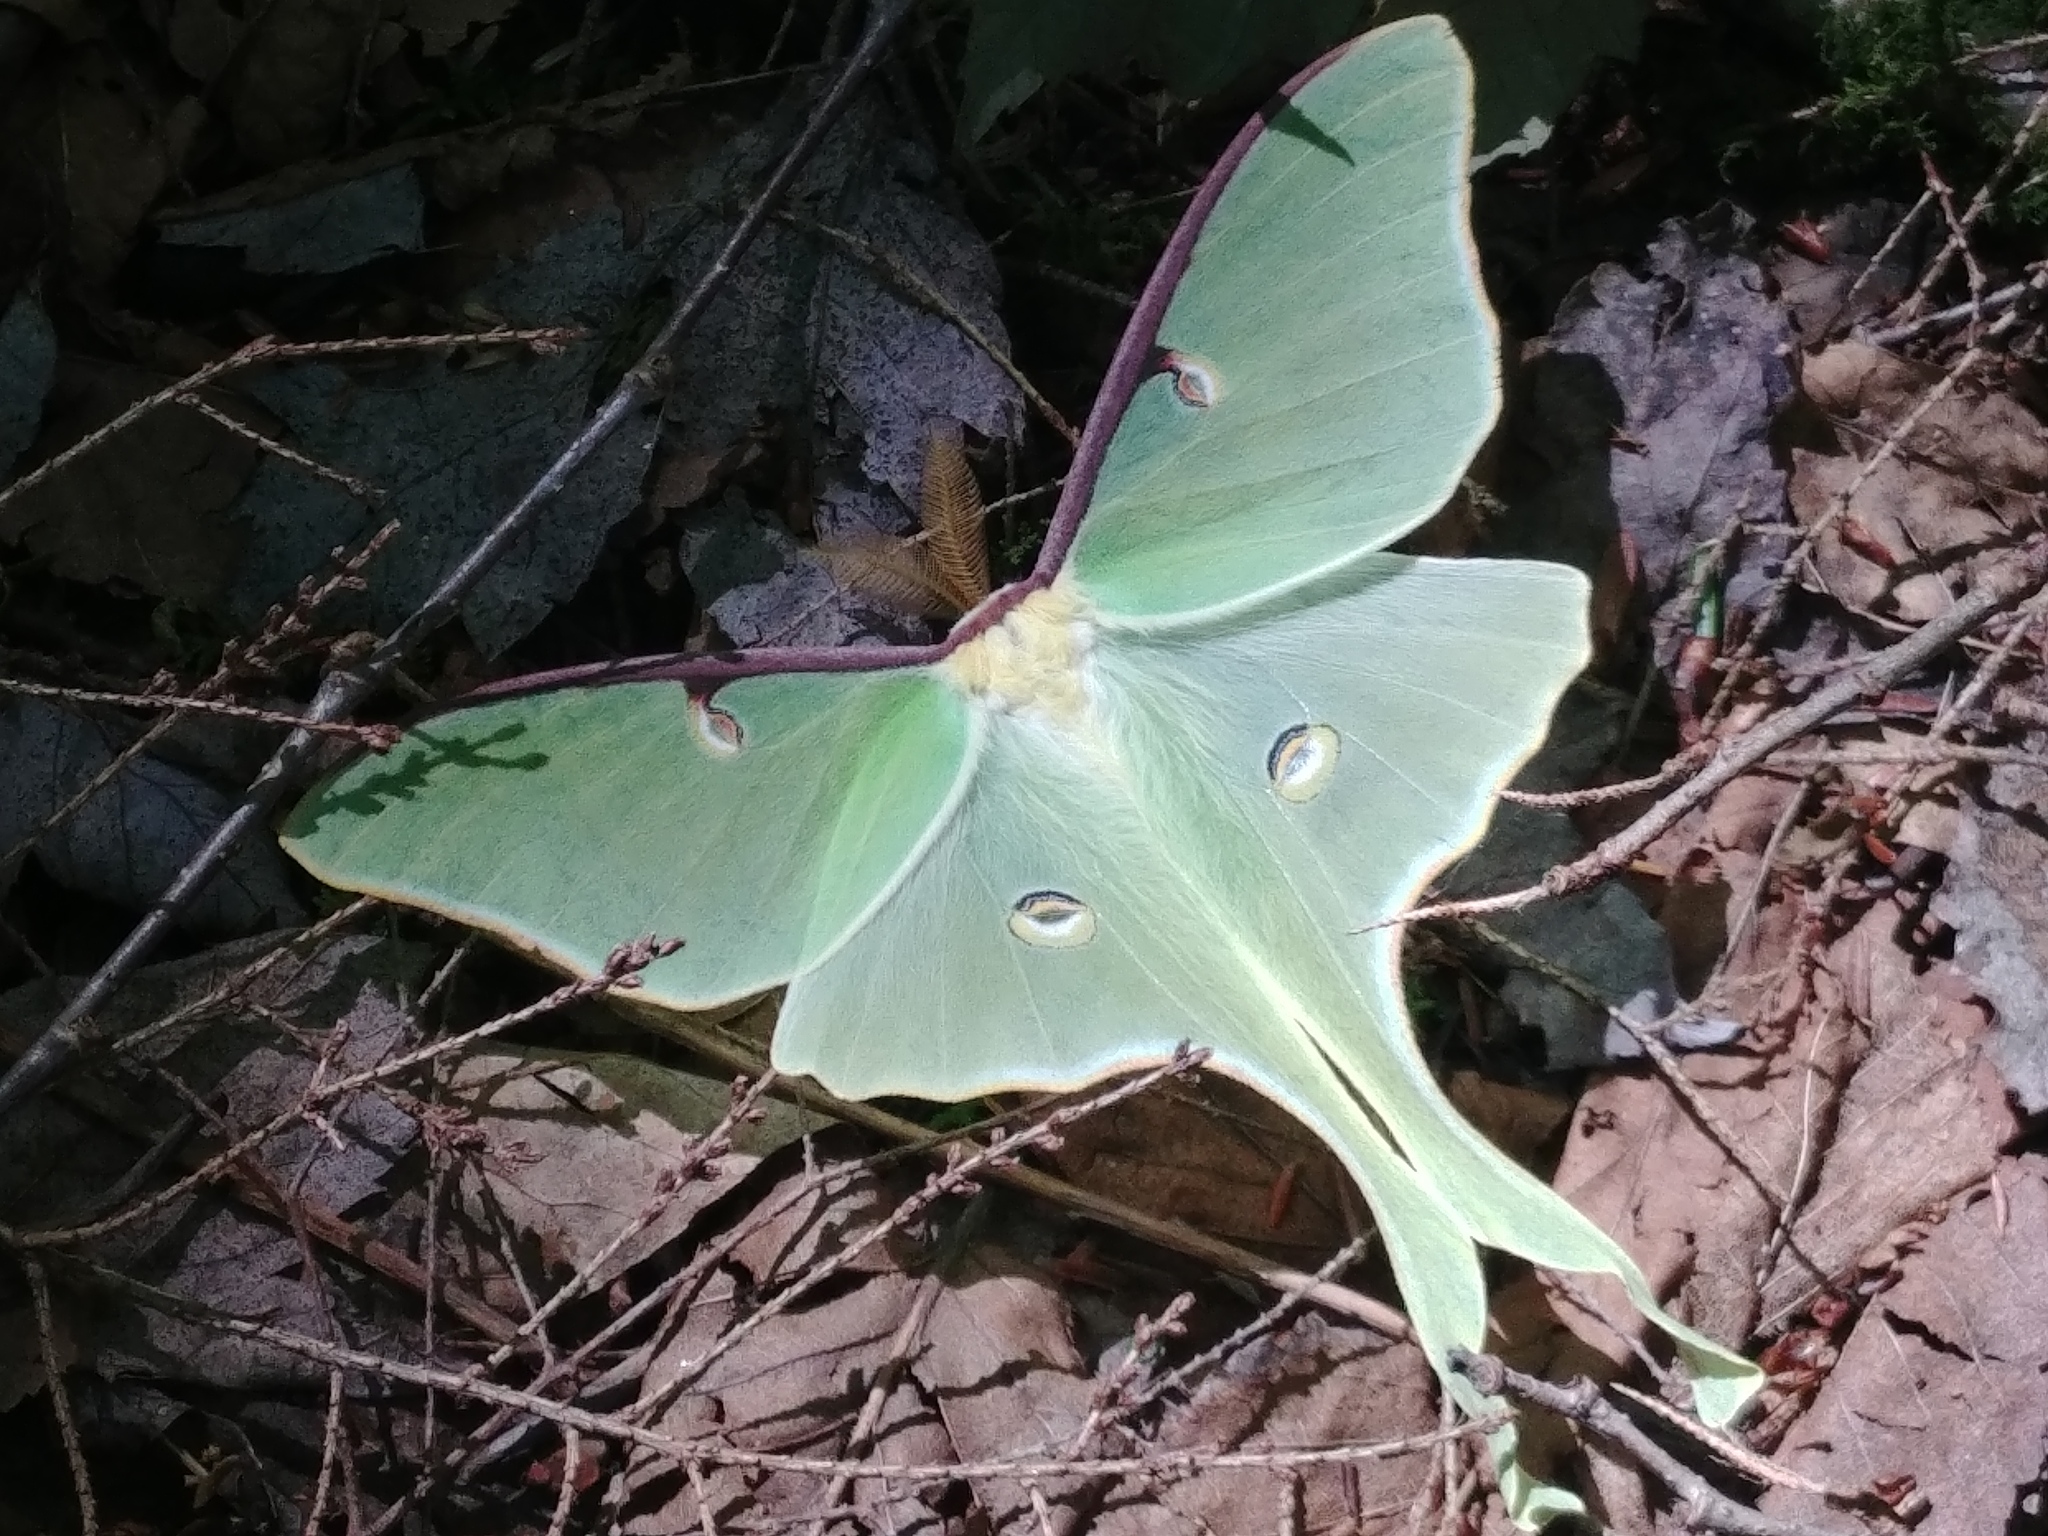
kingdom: Animalia
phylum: Arthropoda
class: Insecta
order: Lepidoptera
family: Saturniidae
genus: Actias
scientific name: Actias luna
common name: Luna moth
